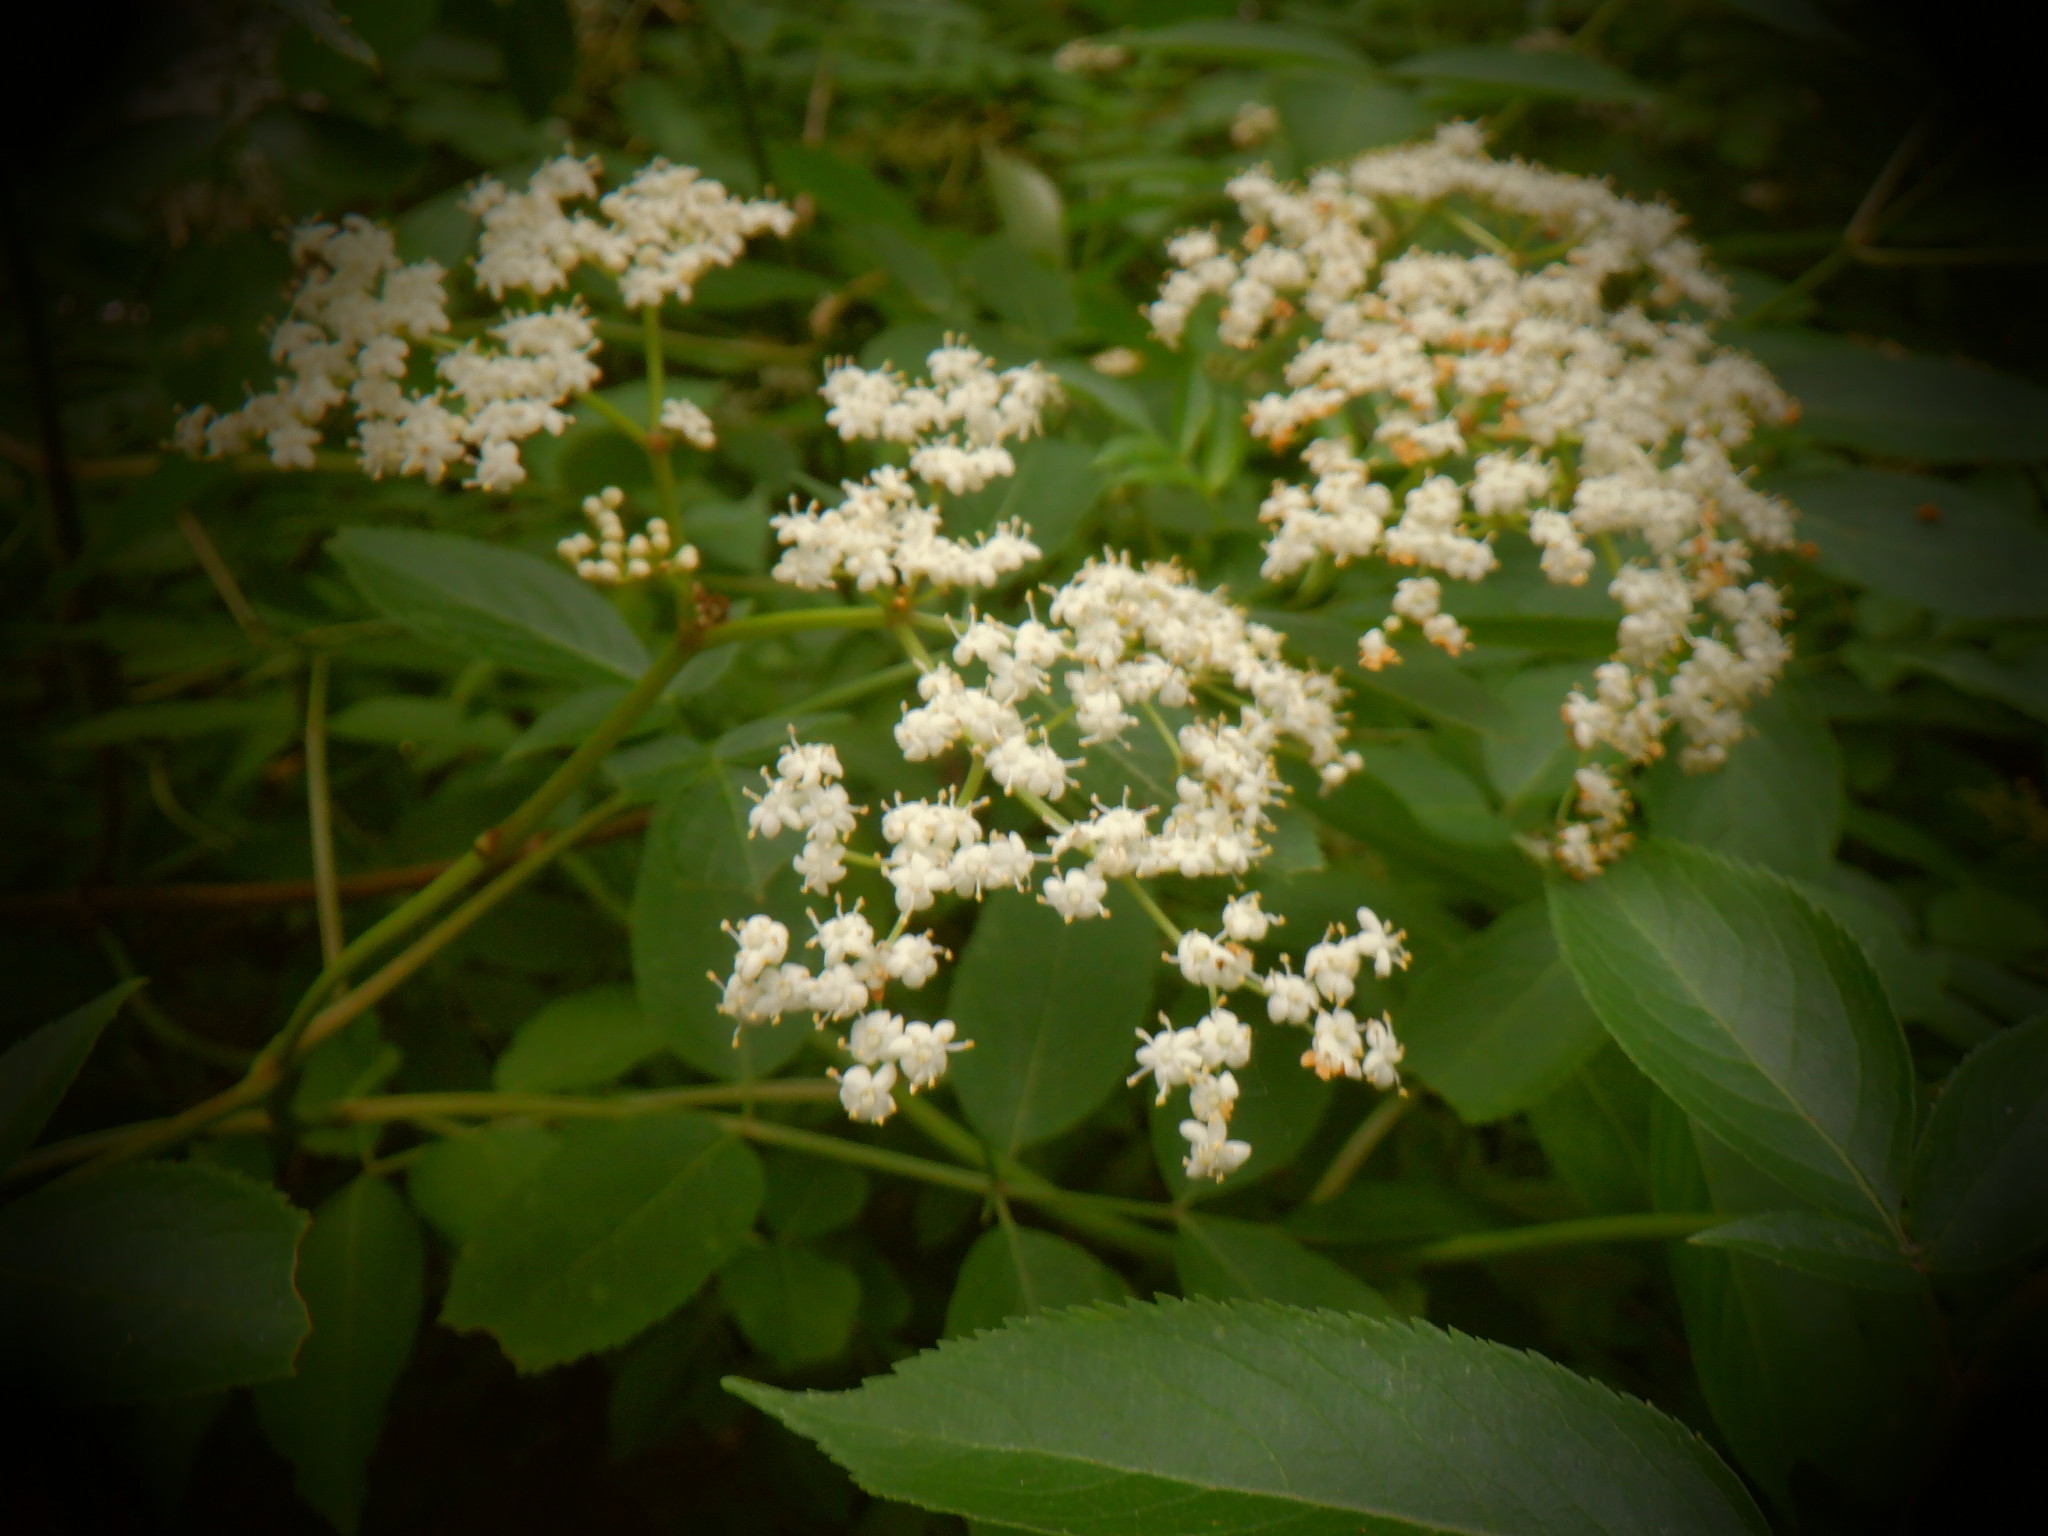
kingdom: Plantae
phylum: Tracheophyta
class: Magnoliopsida
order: Dipsacales
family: Viburnaceae
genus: Sambucus
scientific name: Sambucus canadensis
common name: American elder
